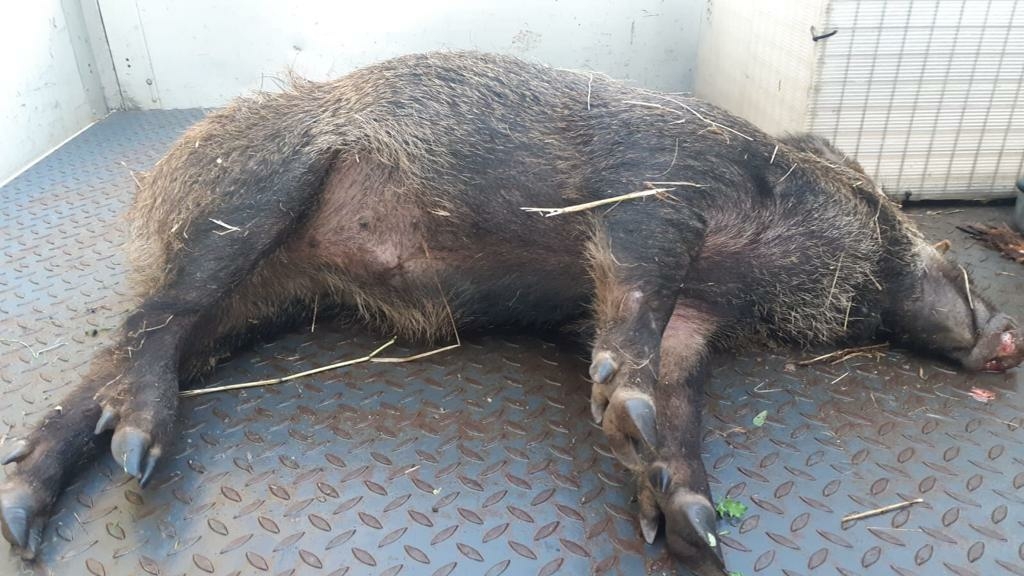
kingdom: Animalia
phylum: Chordata
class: Mammalia
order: Artiodactyla
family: Suidae
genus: Sus
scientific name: Sus scrofa
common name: Wild boar
